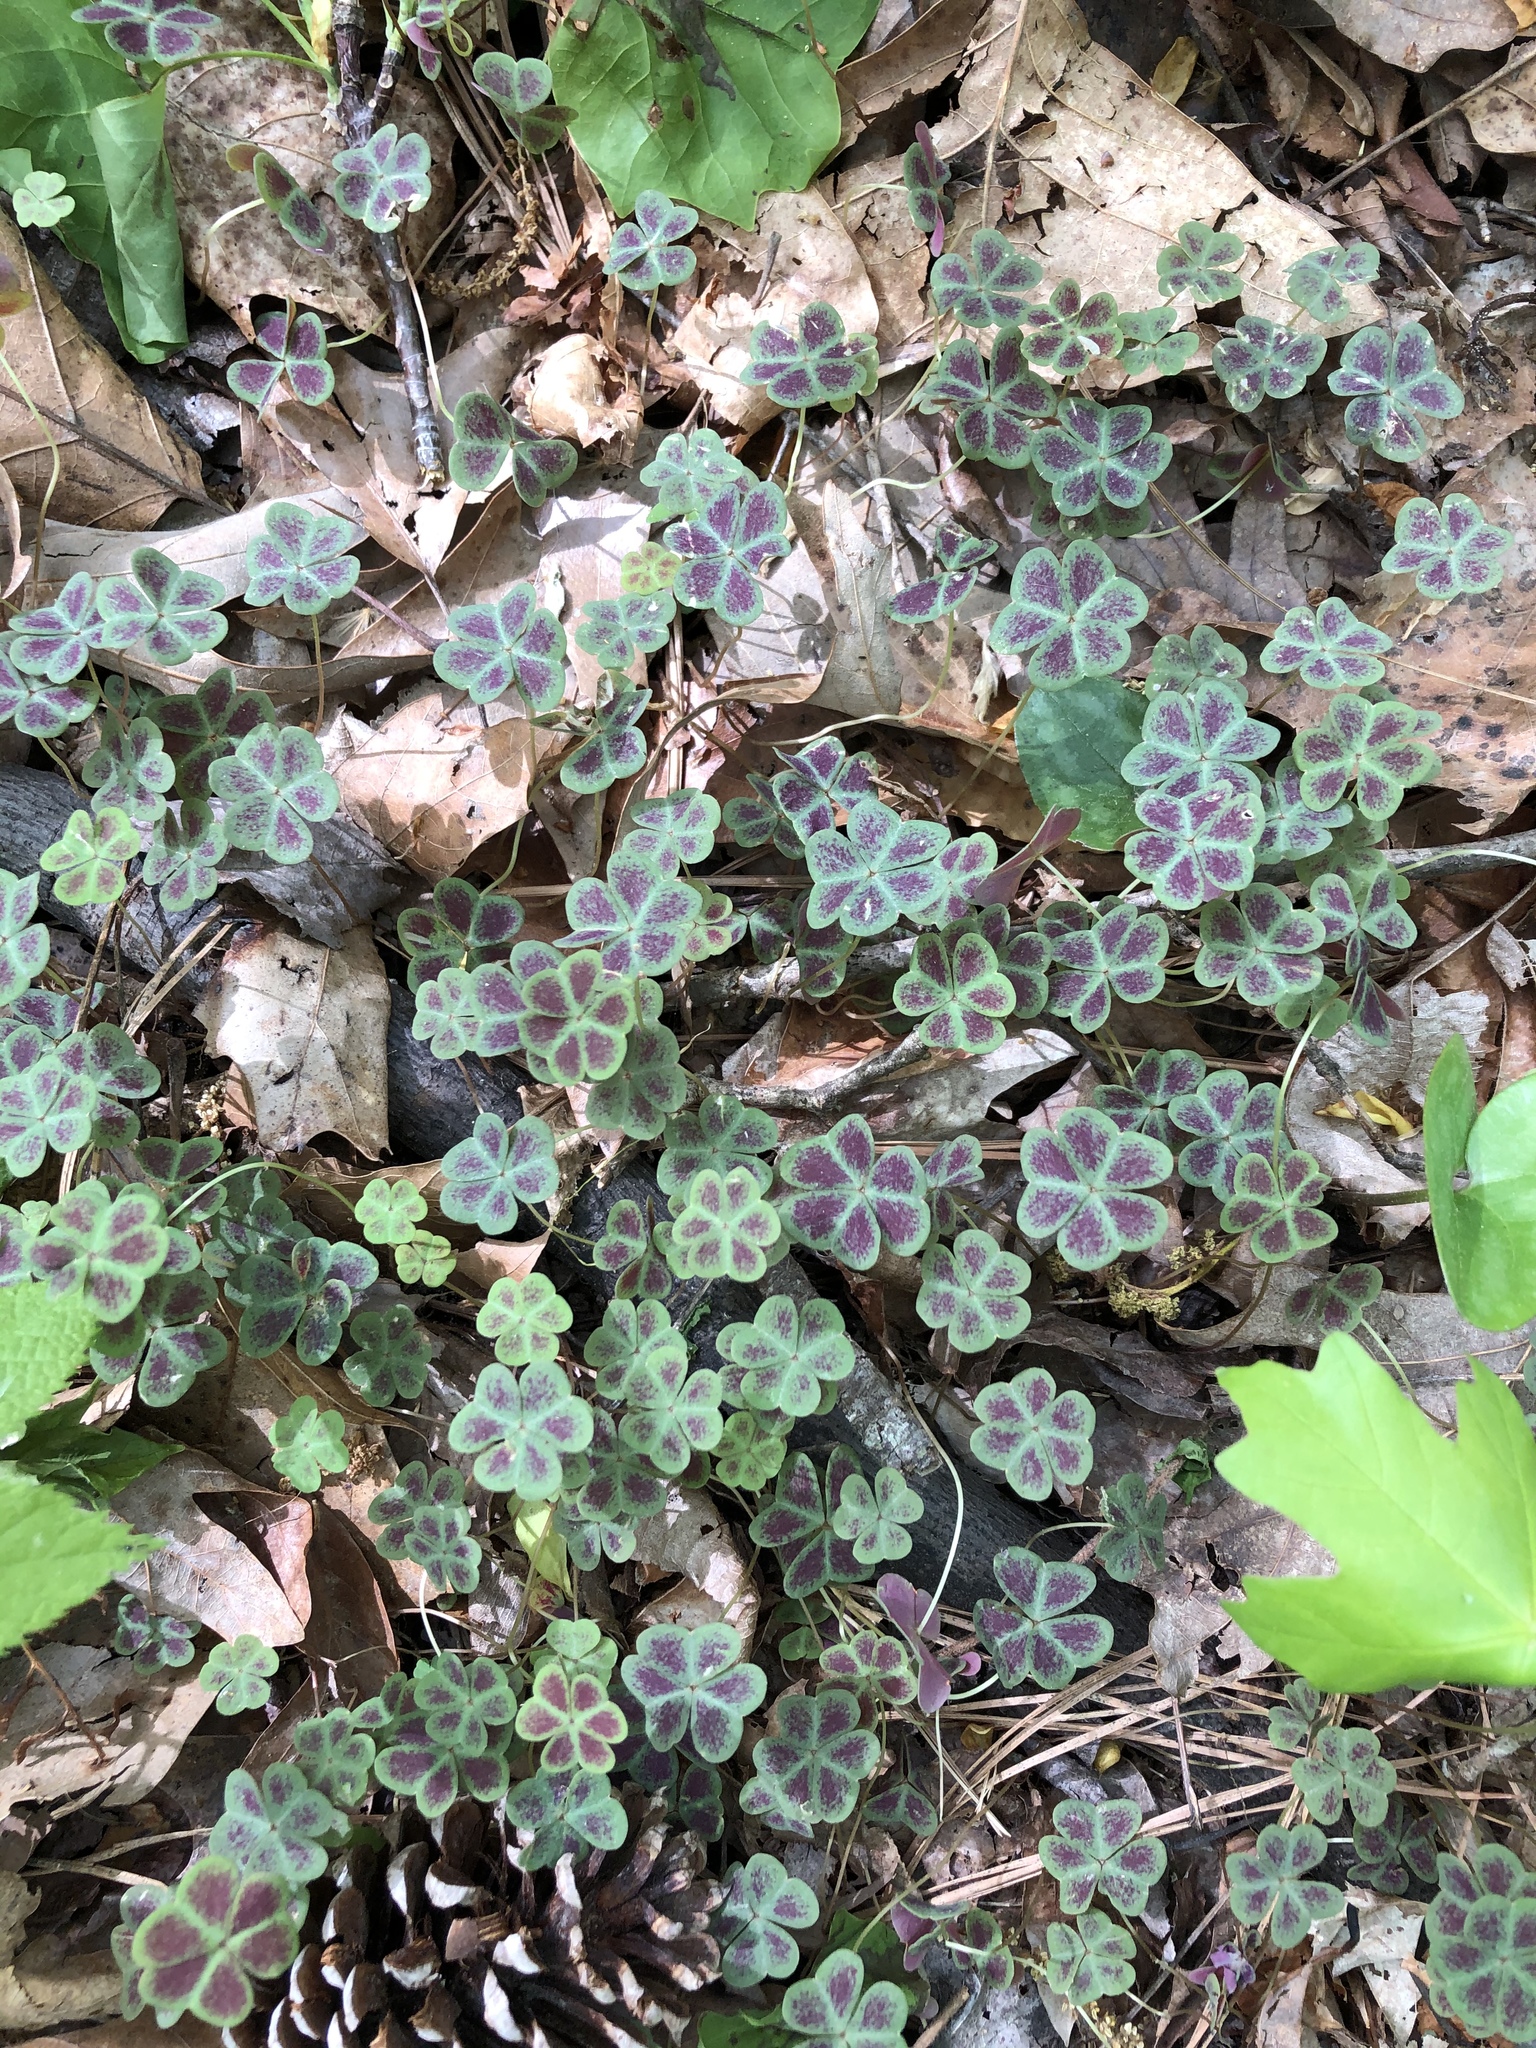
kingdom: Plantae
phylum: Tracheophyta
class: Magnoliopsida
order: Oxalidales
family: Oxalidaceae
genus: Oxalis
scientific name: Oxalis violacea
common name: Violet wood-sorrel
